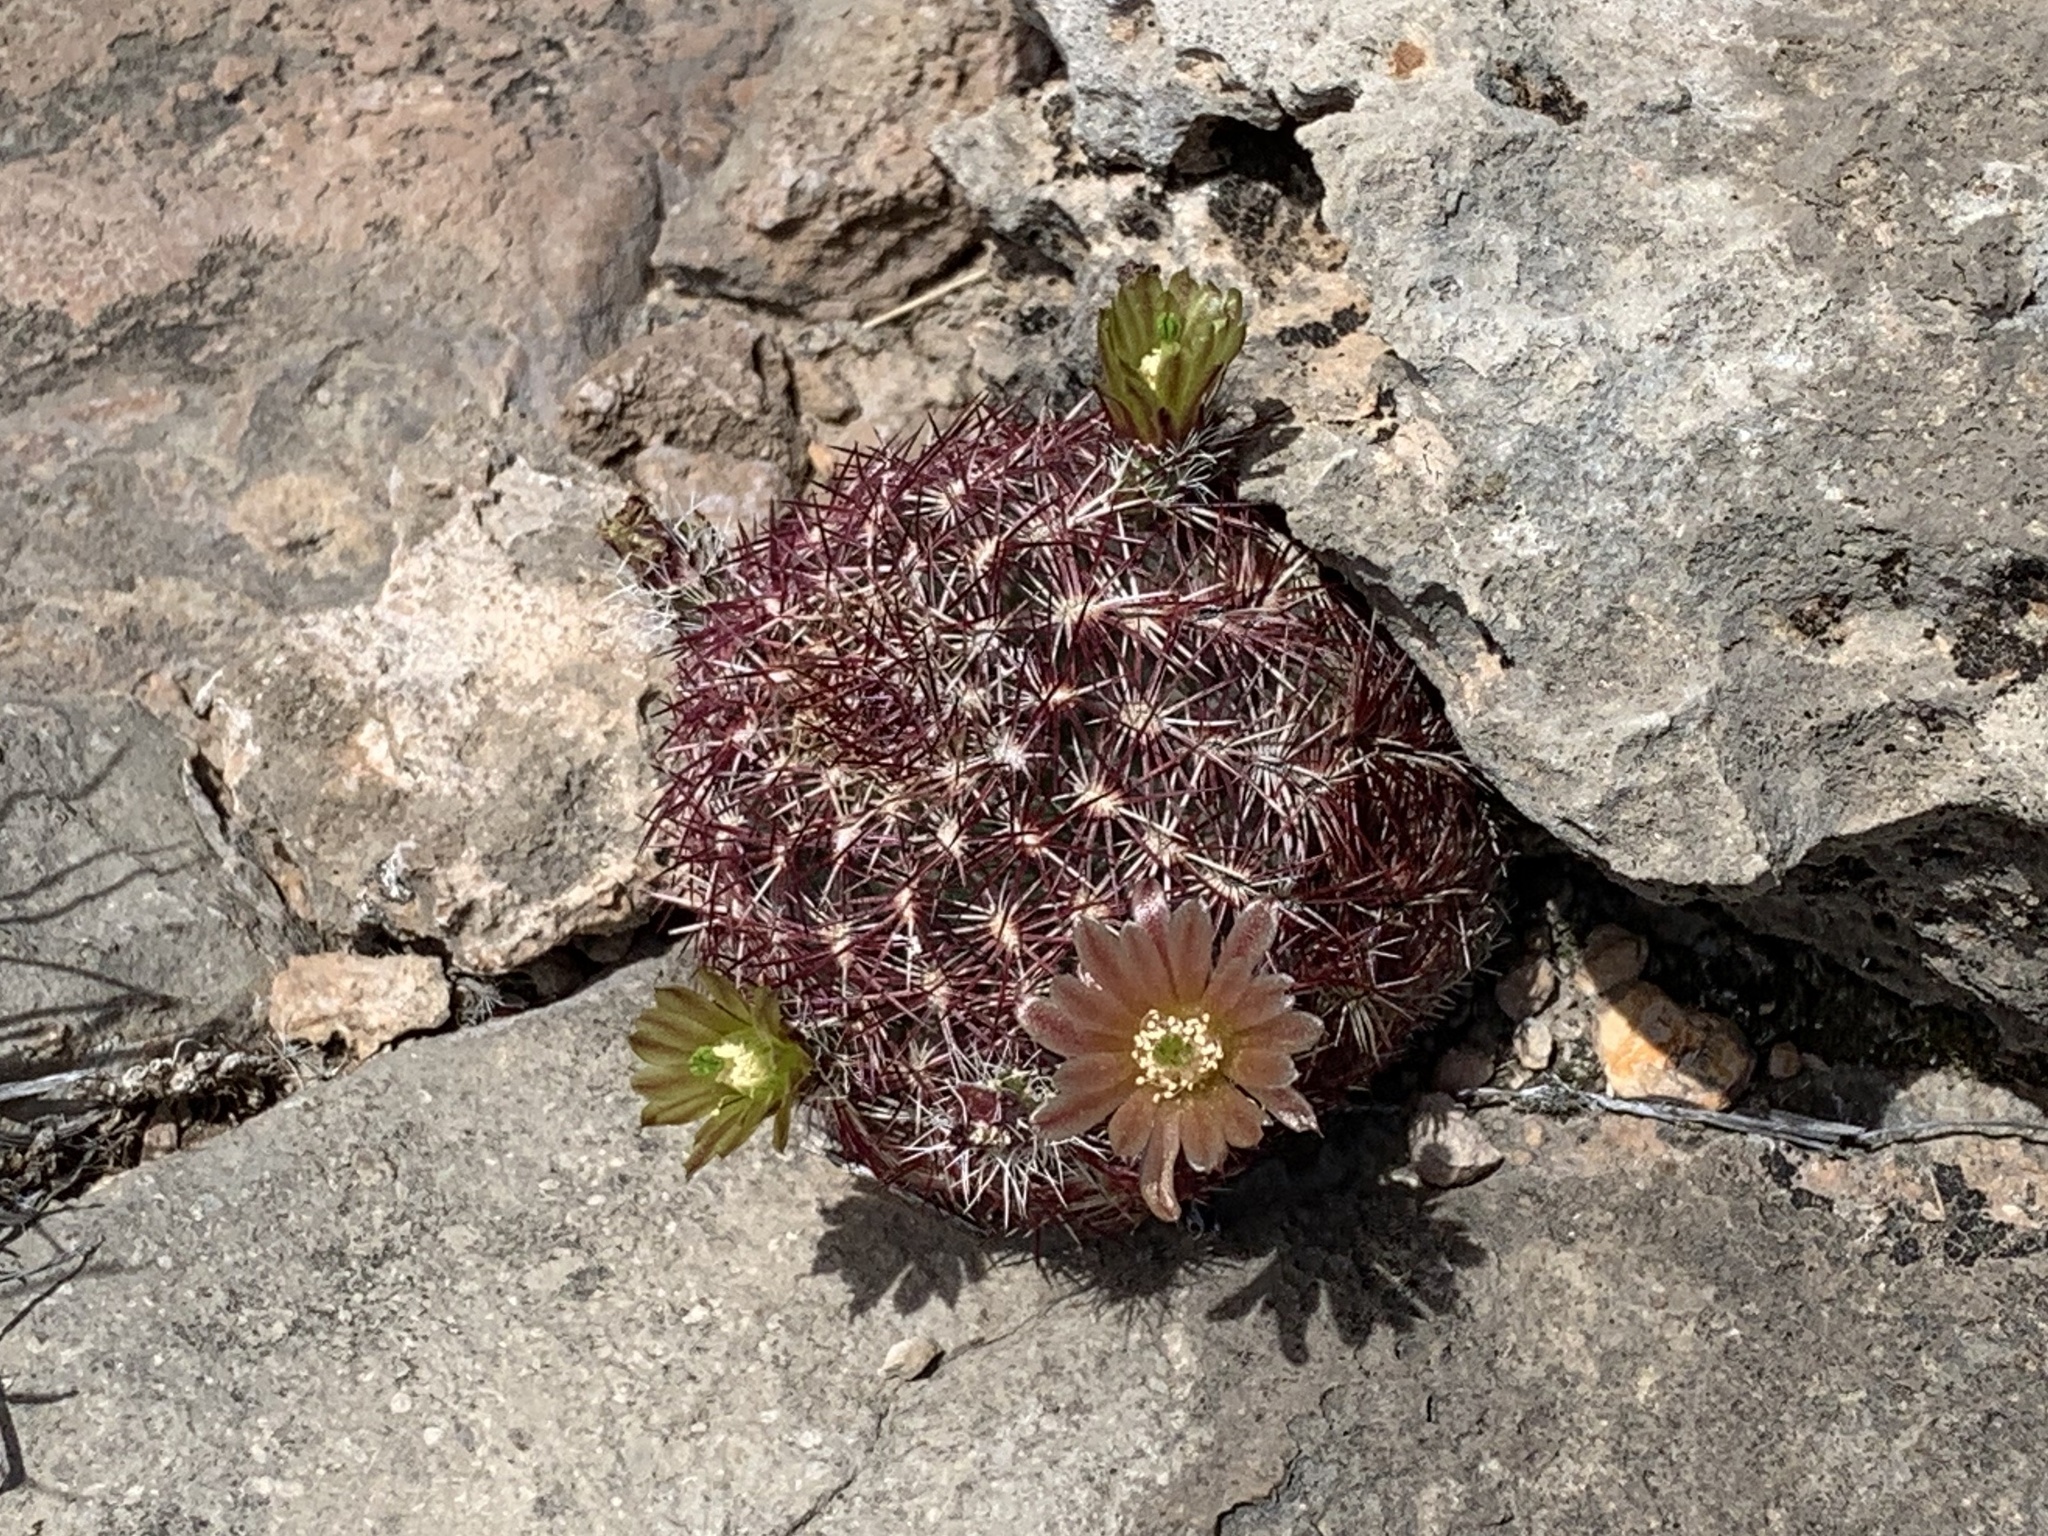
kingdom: Plantae
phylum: Tracheophyta
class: Magnoliopsida
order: Caryophyllales
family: Cactaceae
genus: Echinocereus
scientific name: Echinocereus viridiflorus
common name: Nylon hedgehog cactus
